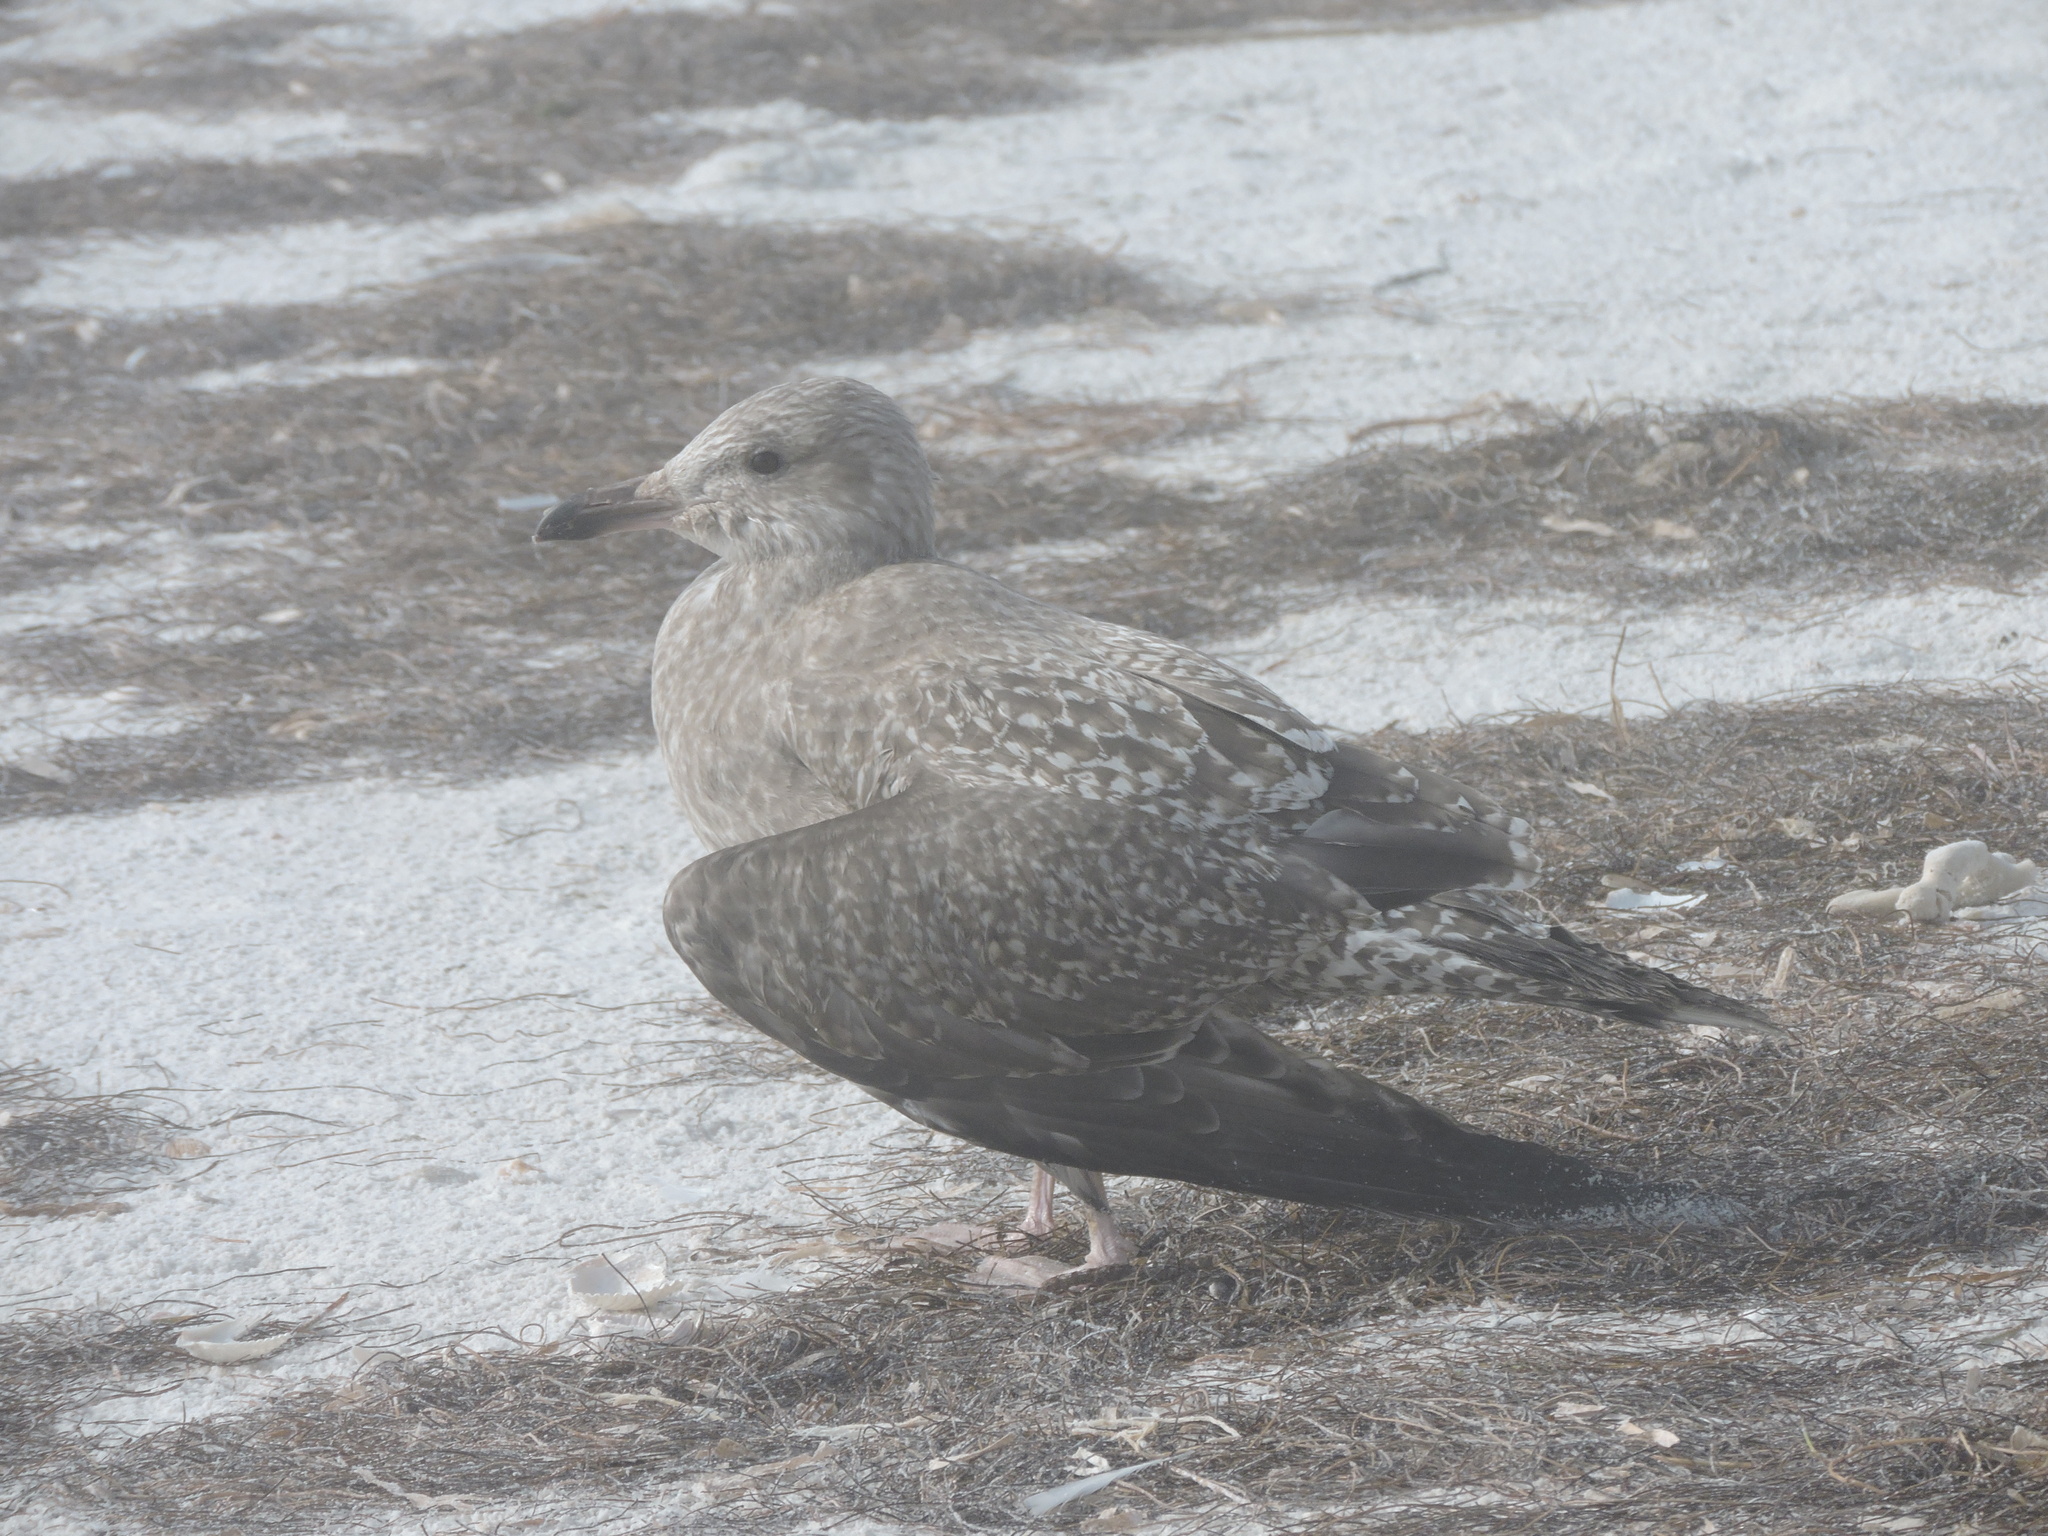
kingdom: Animalia
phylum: Chordata
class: Aves
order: Charadriiformes
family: Laridae
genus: Larus
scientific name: Larus argentatus
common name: Herring gull
